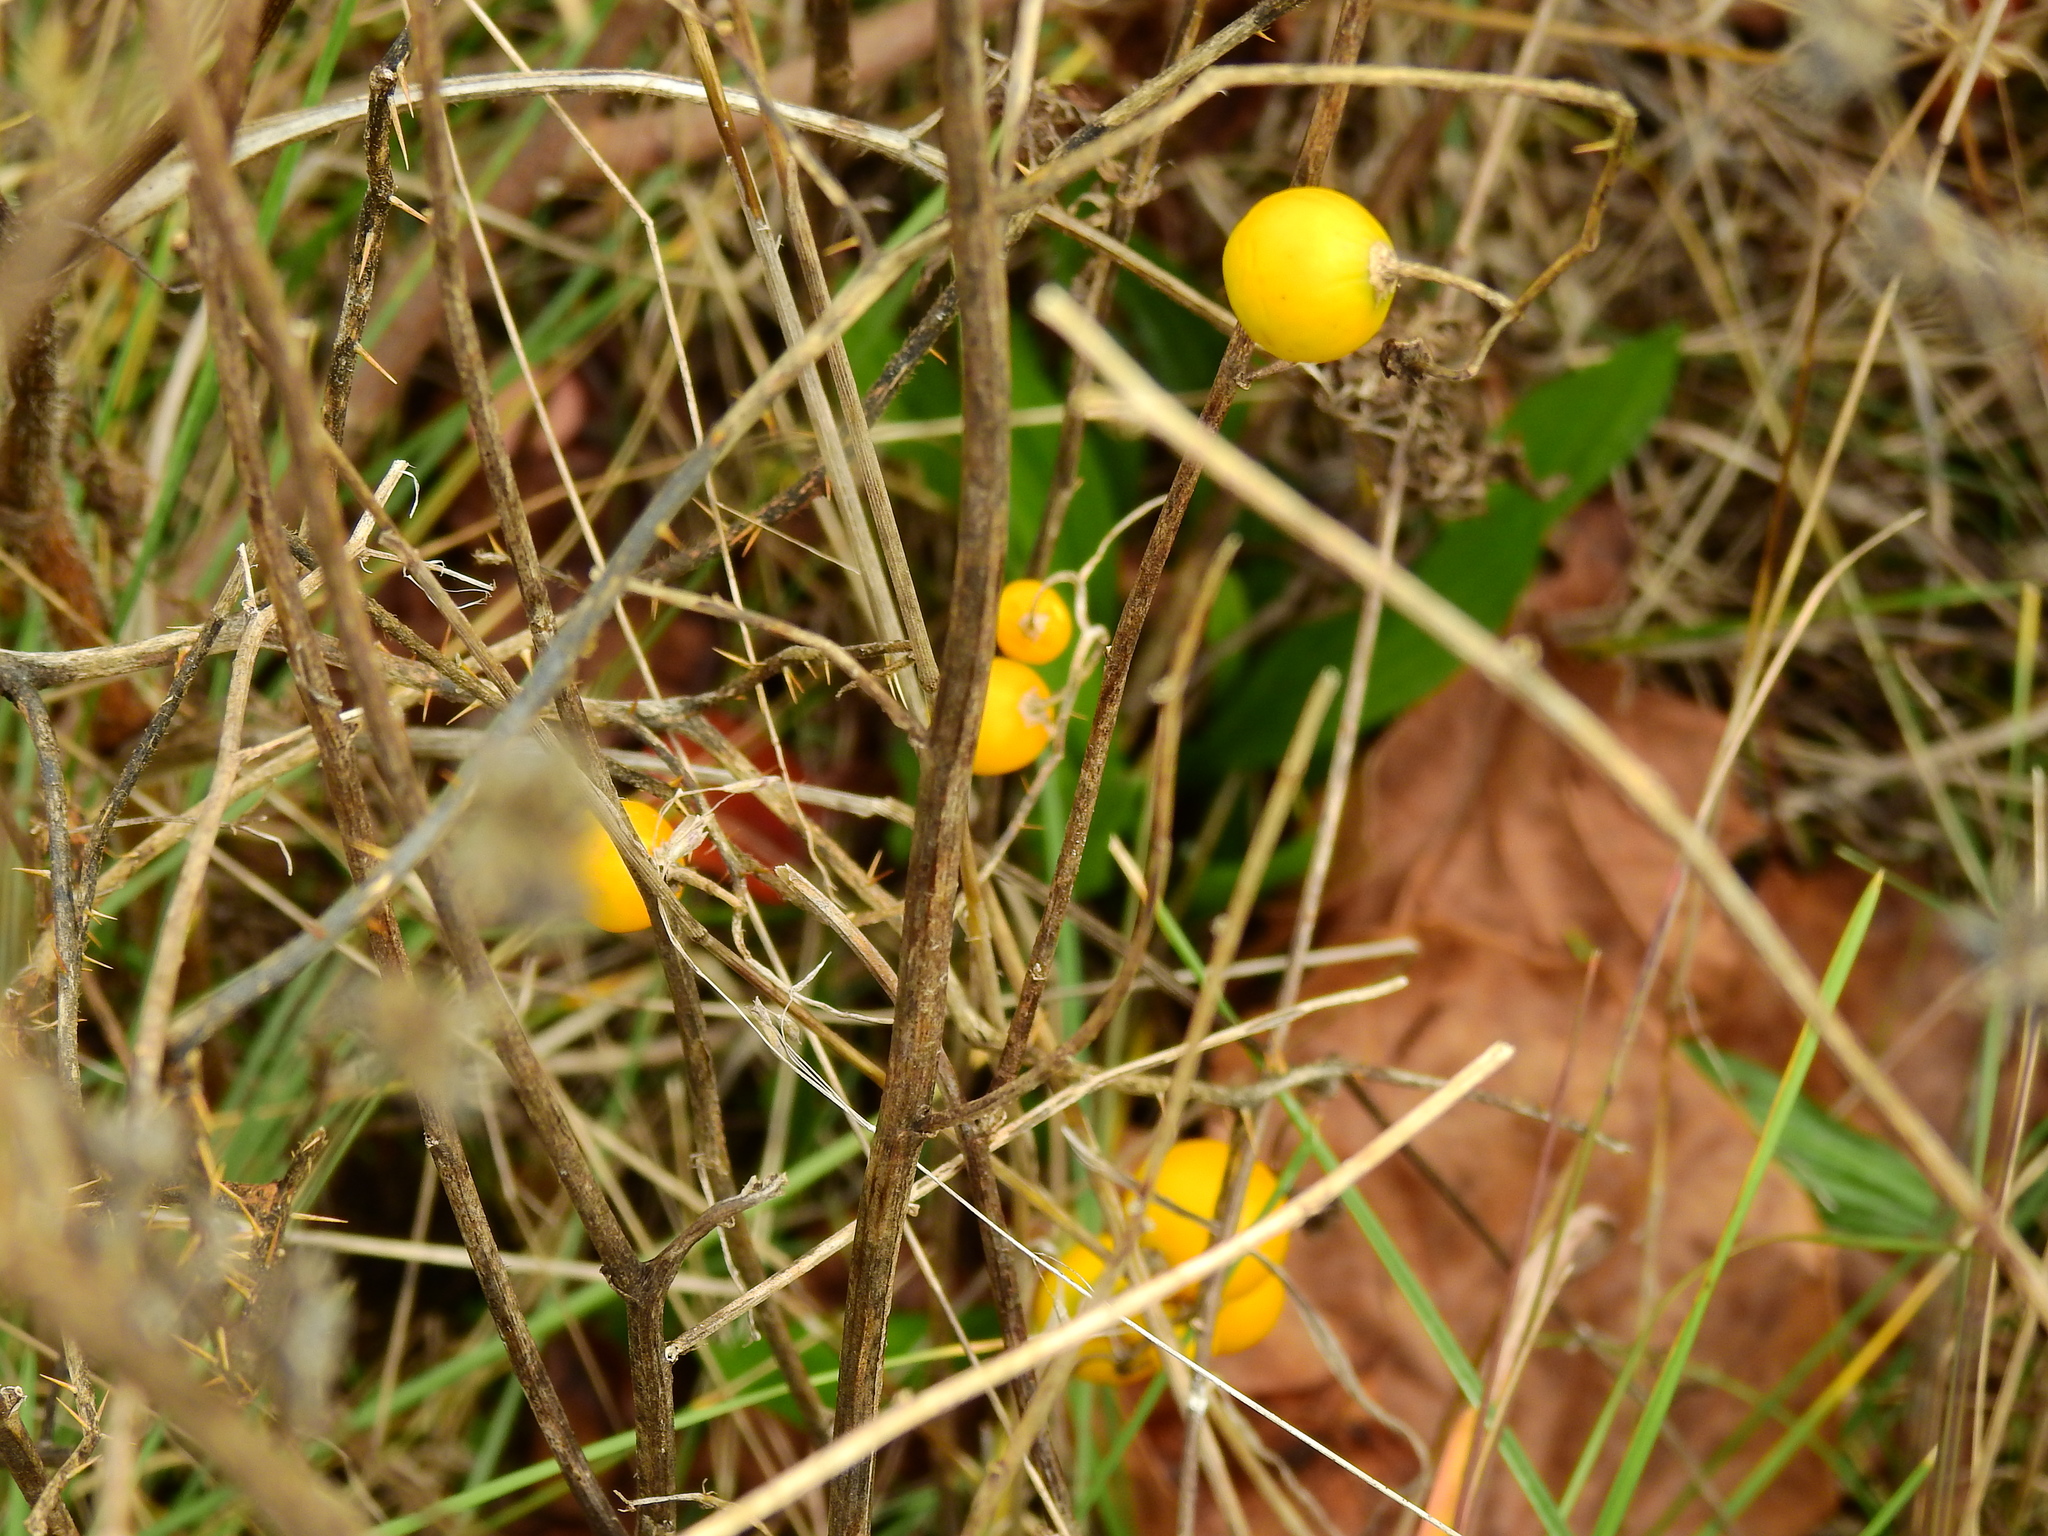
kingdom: Plantae
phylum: Tracheophyta
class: Magnoliopsida
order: Solanales
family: Solanaceae
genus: Solanum
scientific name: Solanum carolinense
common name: Horse-nettle
